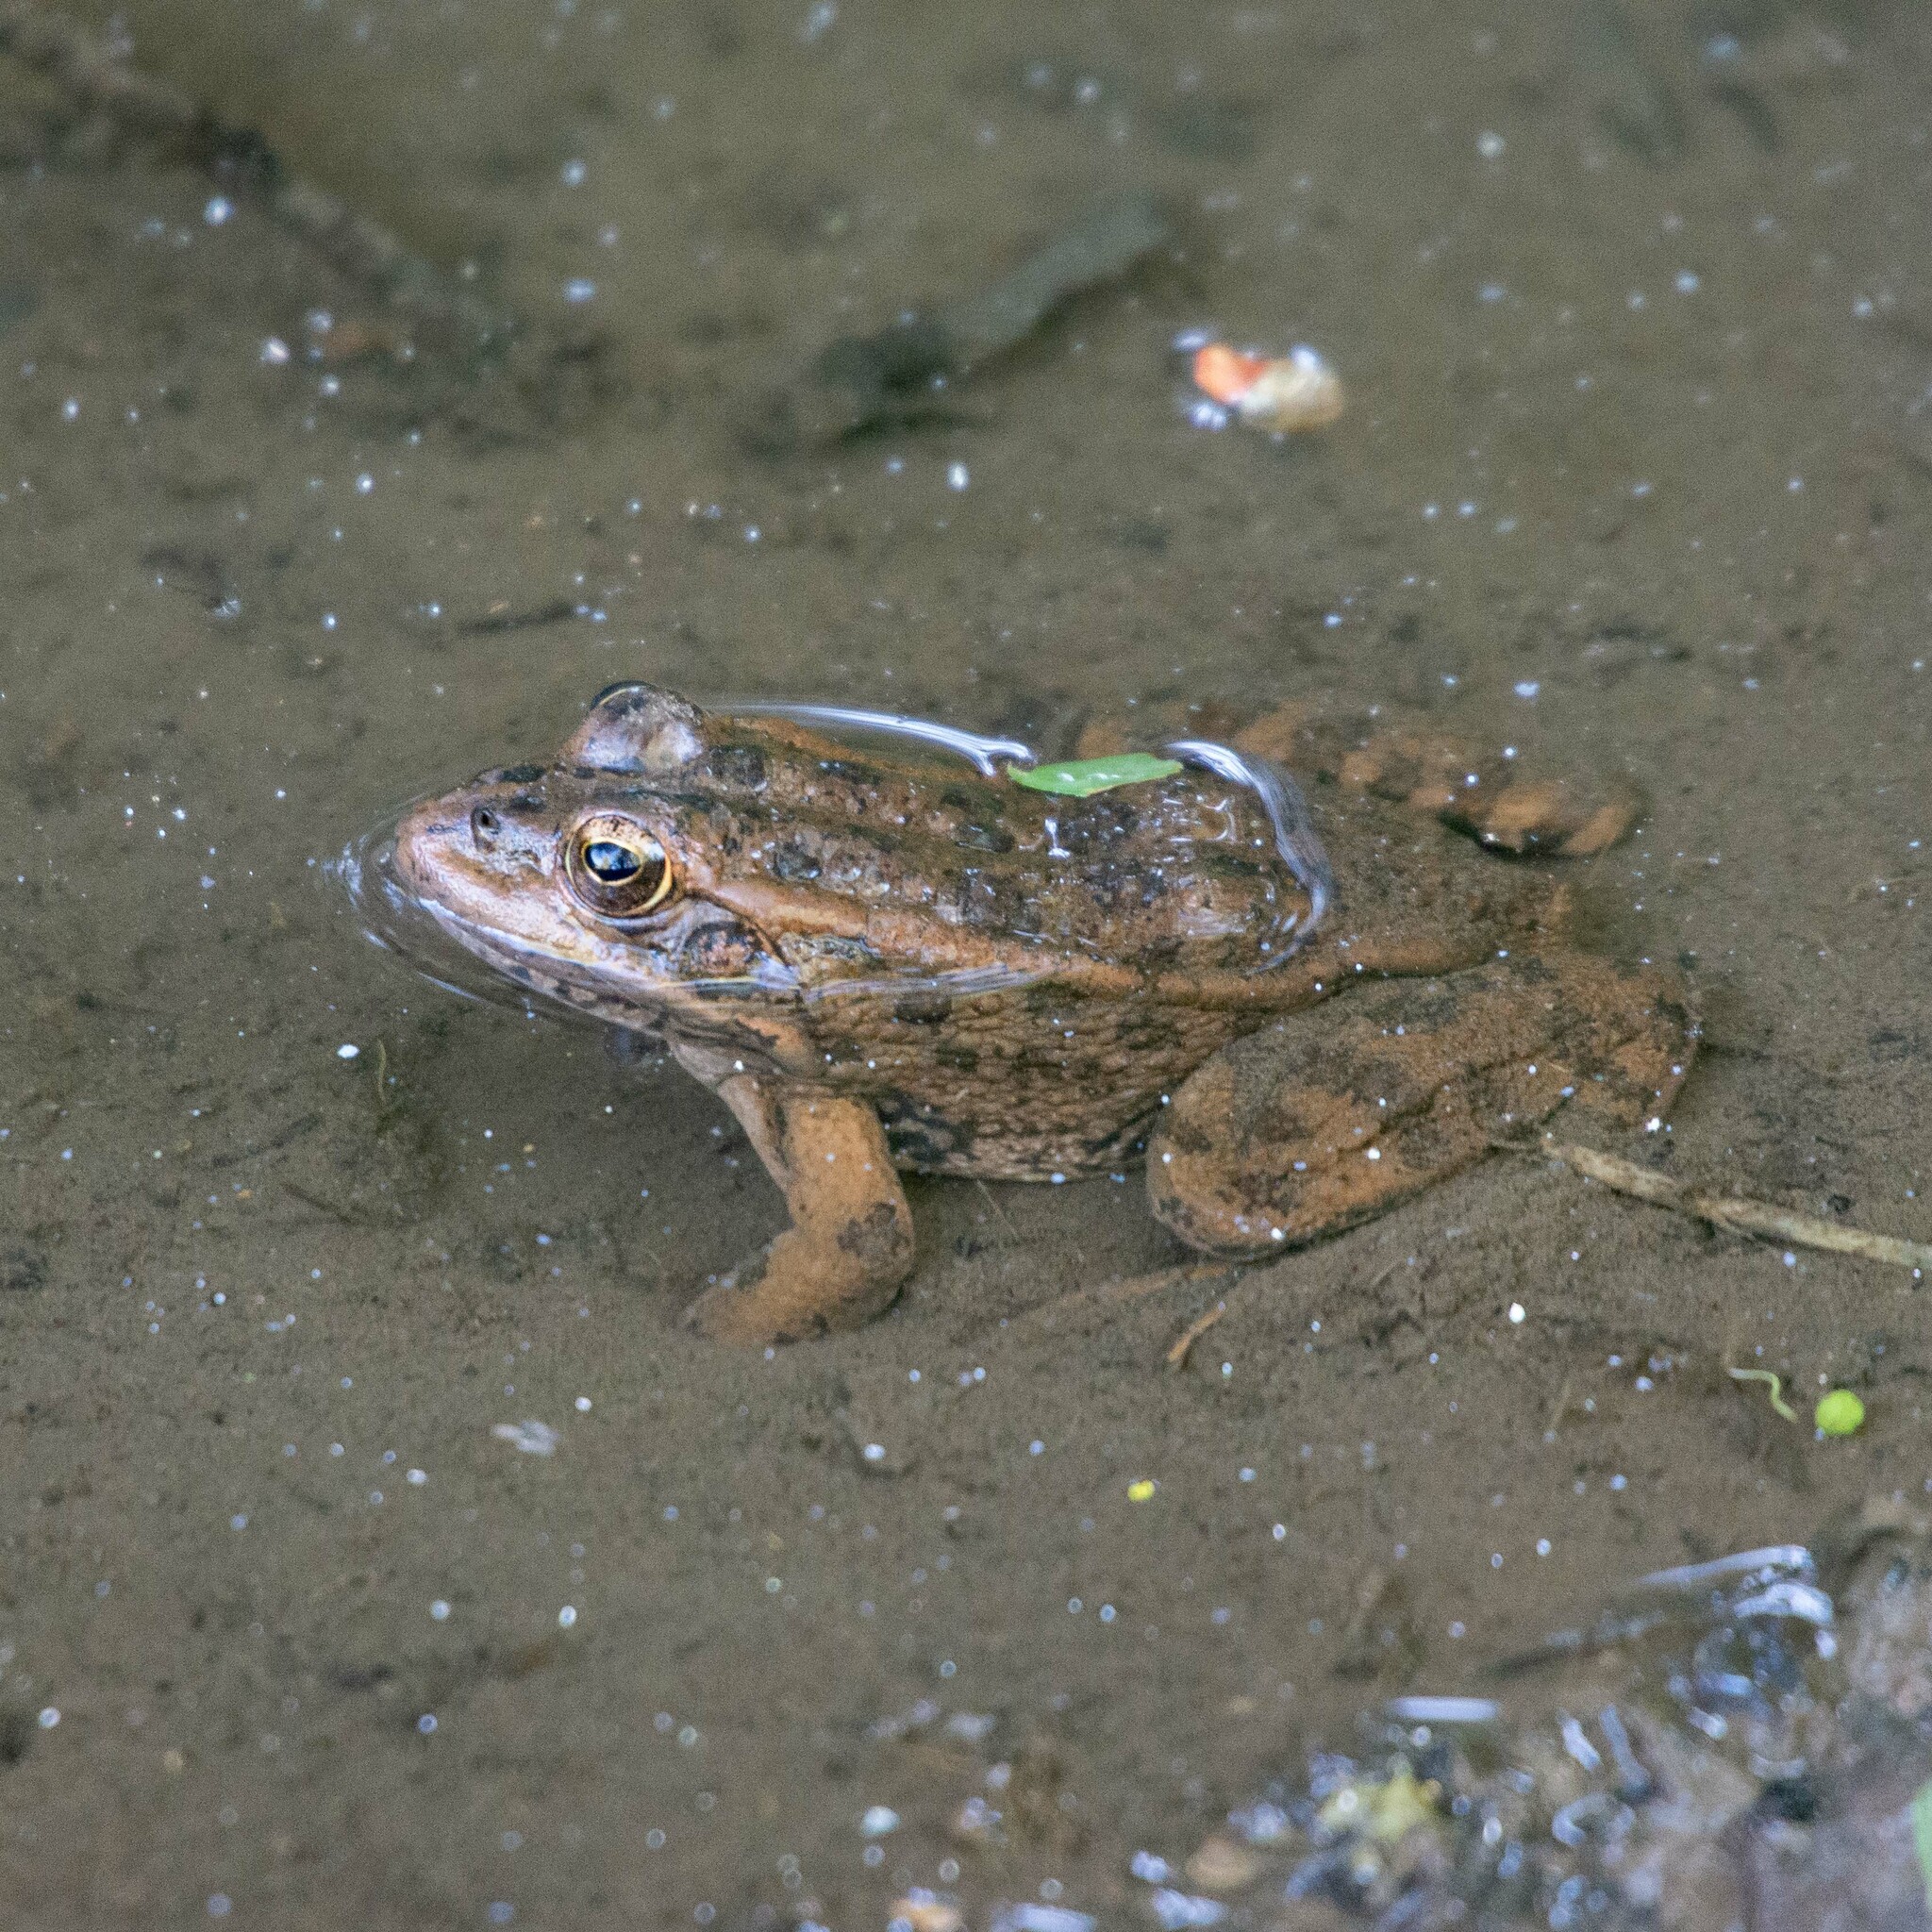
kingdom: Animalia
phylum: Chordata
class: Amphibia
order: Anura
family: Ranidae
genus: Pelophylax
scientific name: Pelophylax perezi
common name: Perez's frog
